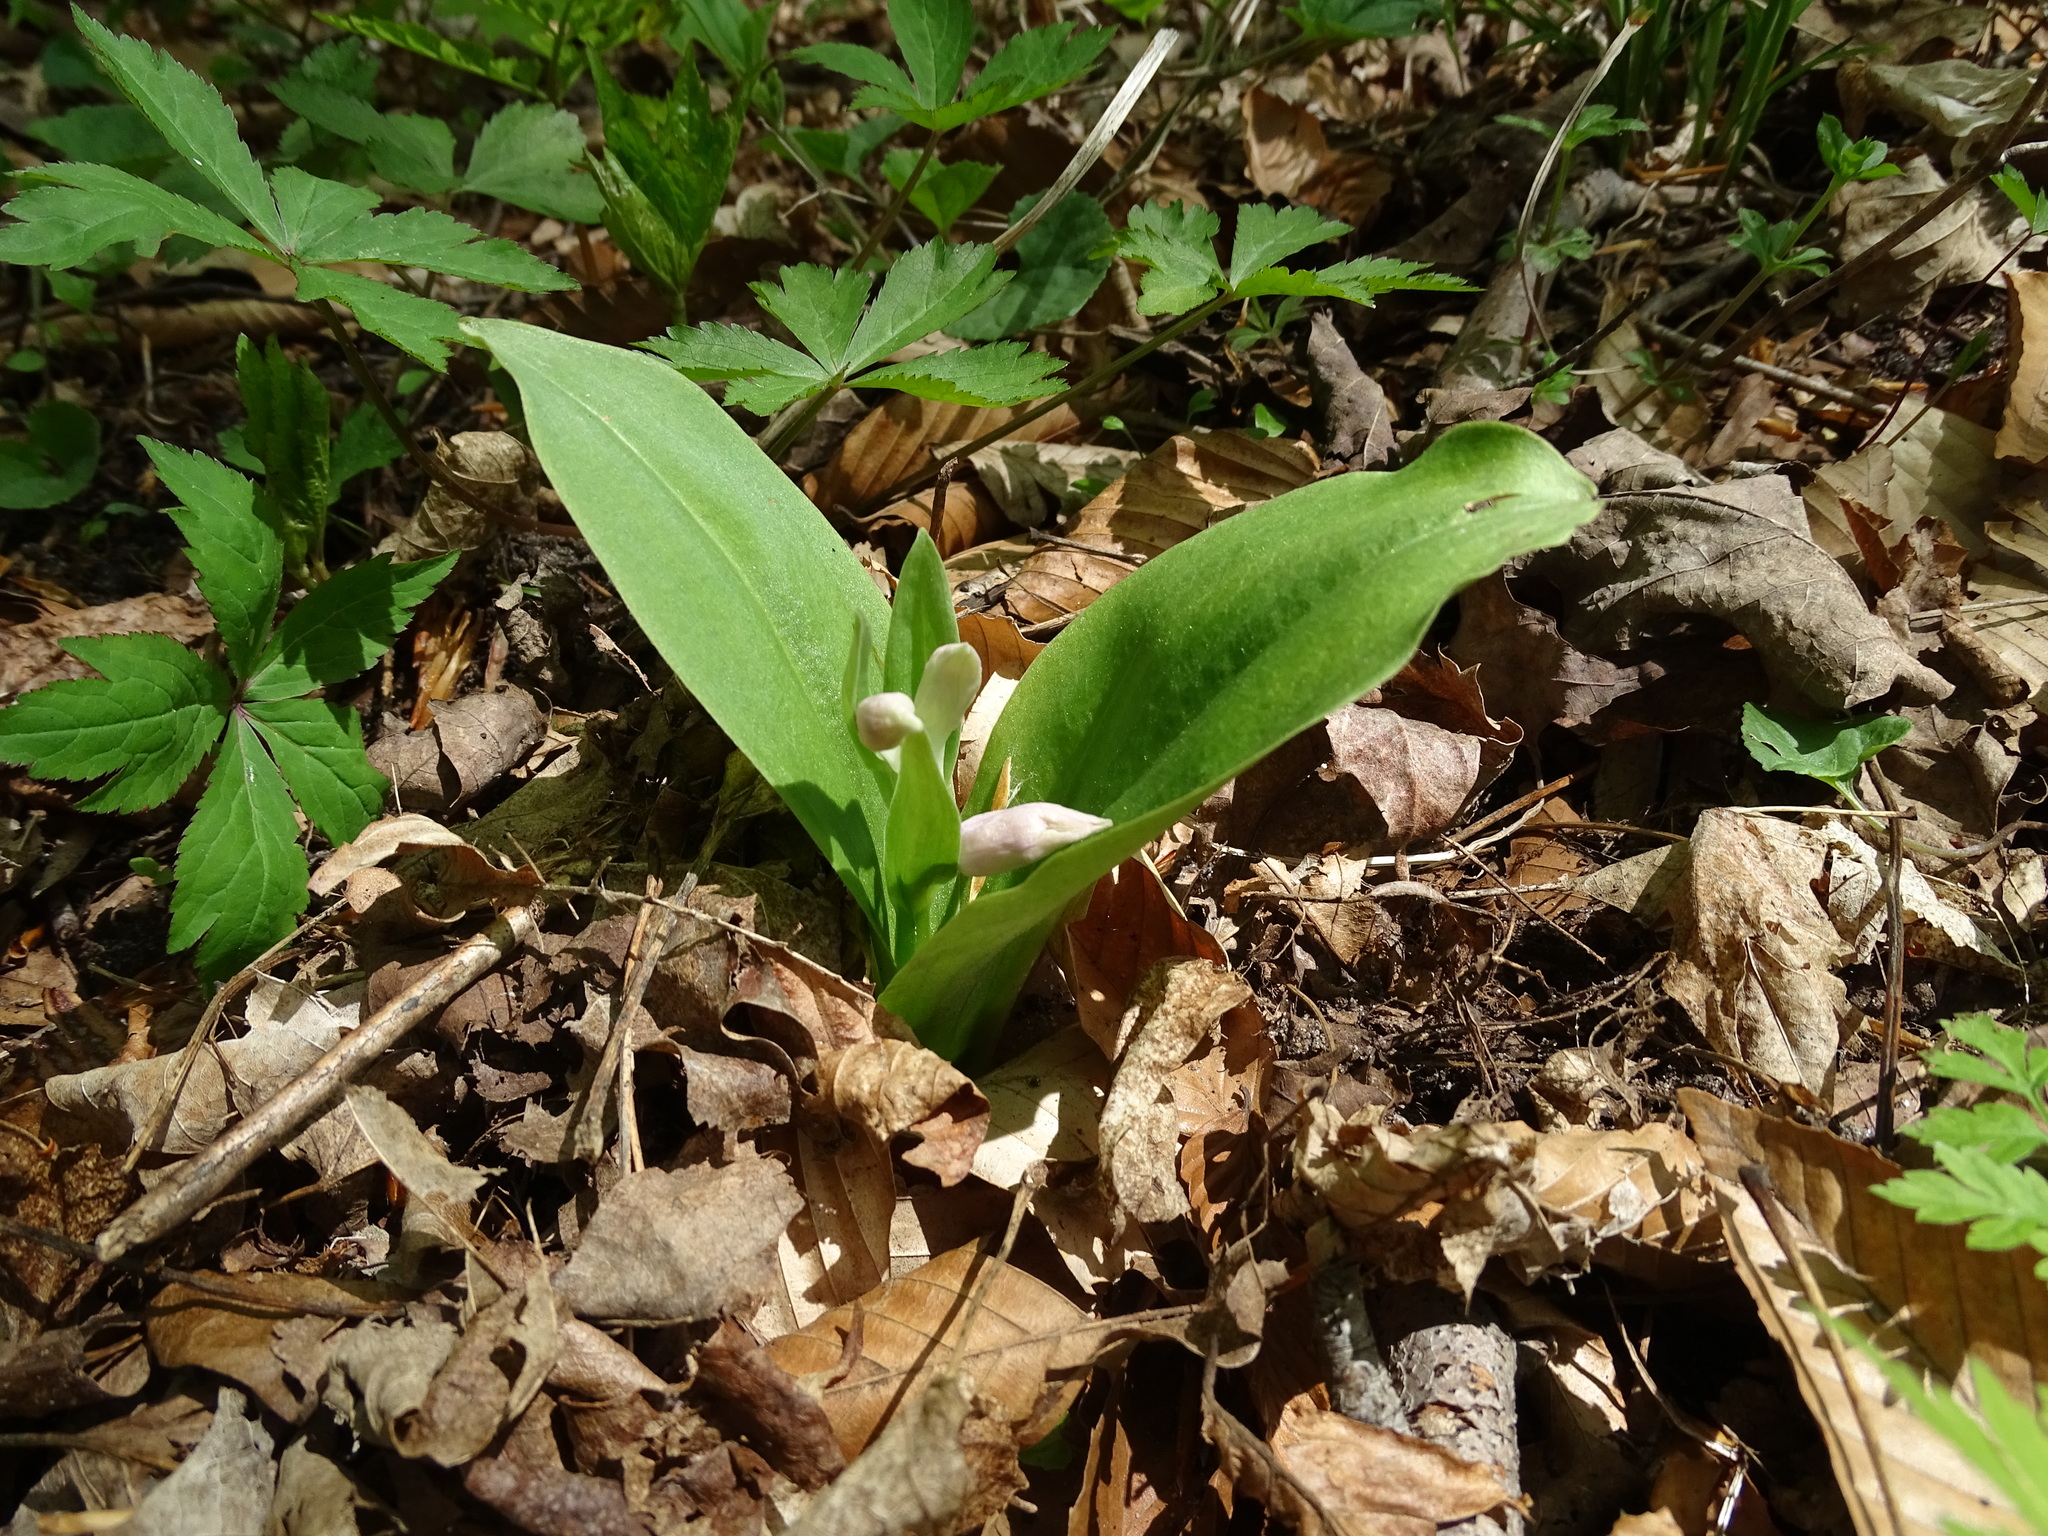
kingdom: Plantae
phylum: Tracheophyta
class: Liliopsida
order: Asparagales
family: Orchidaceae
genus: Galearis
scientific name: Galearis spectabilis
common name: Purple-hooded orchis
